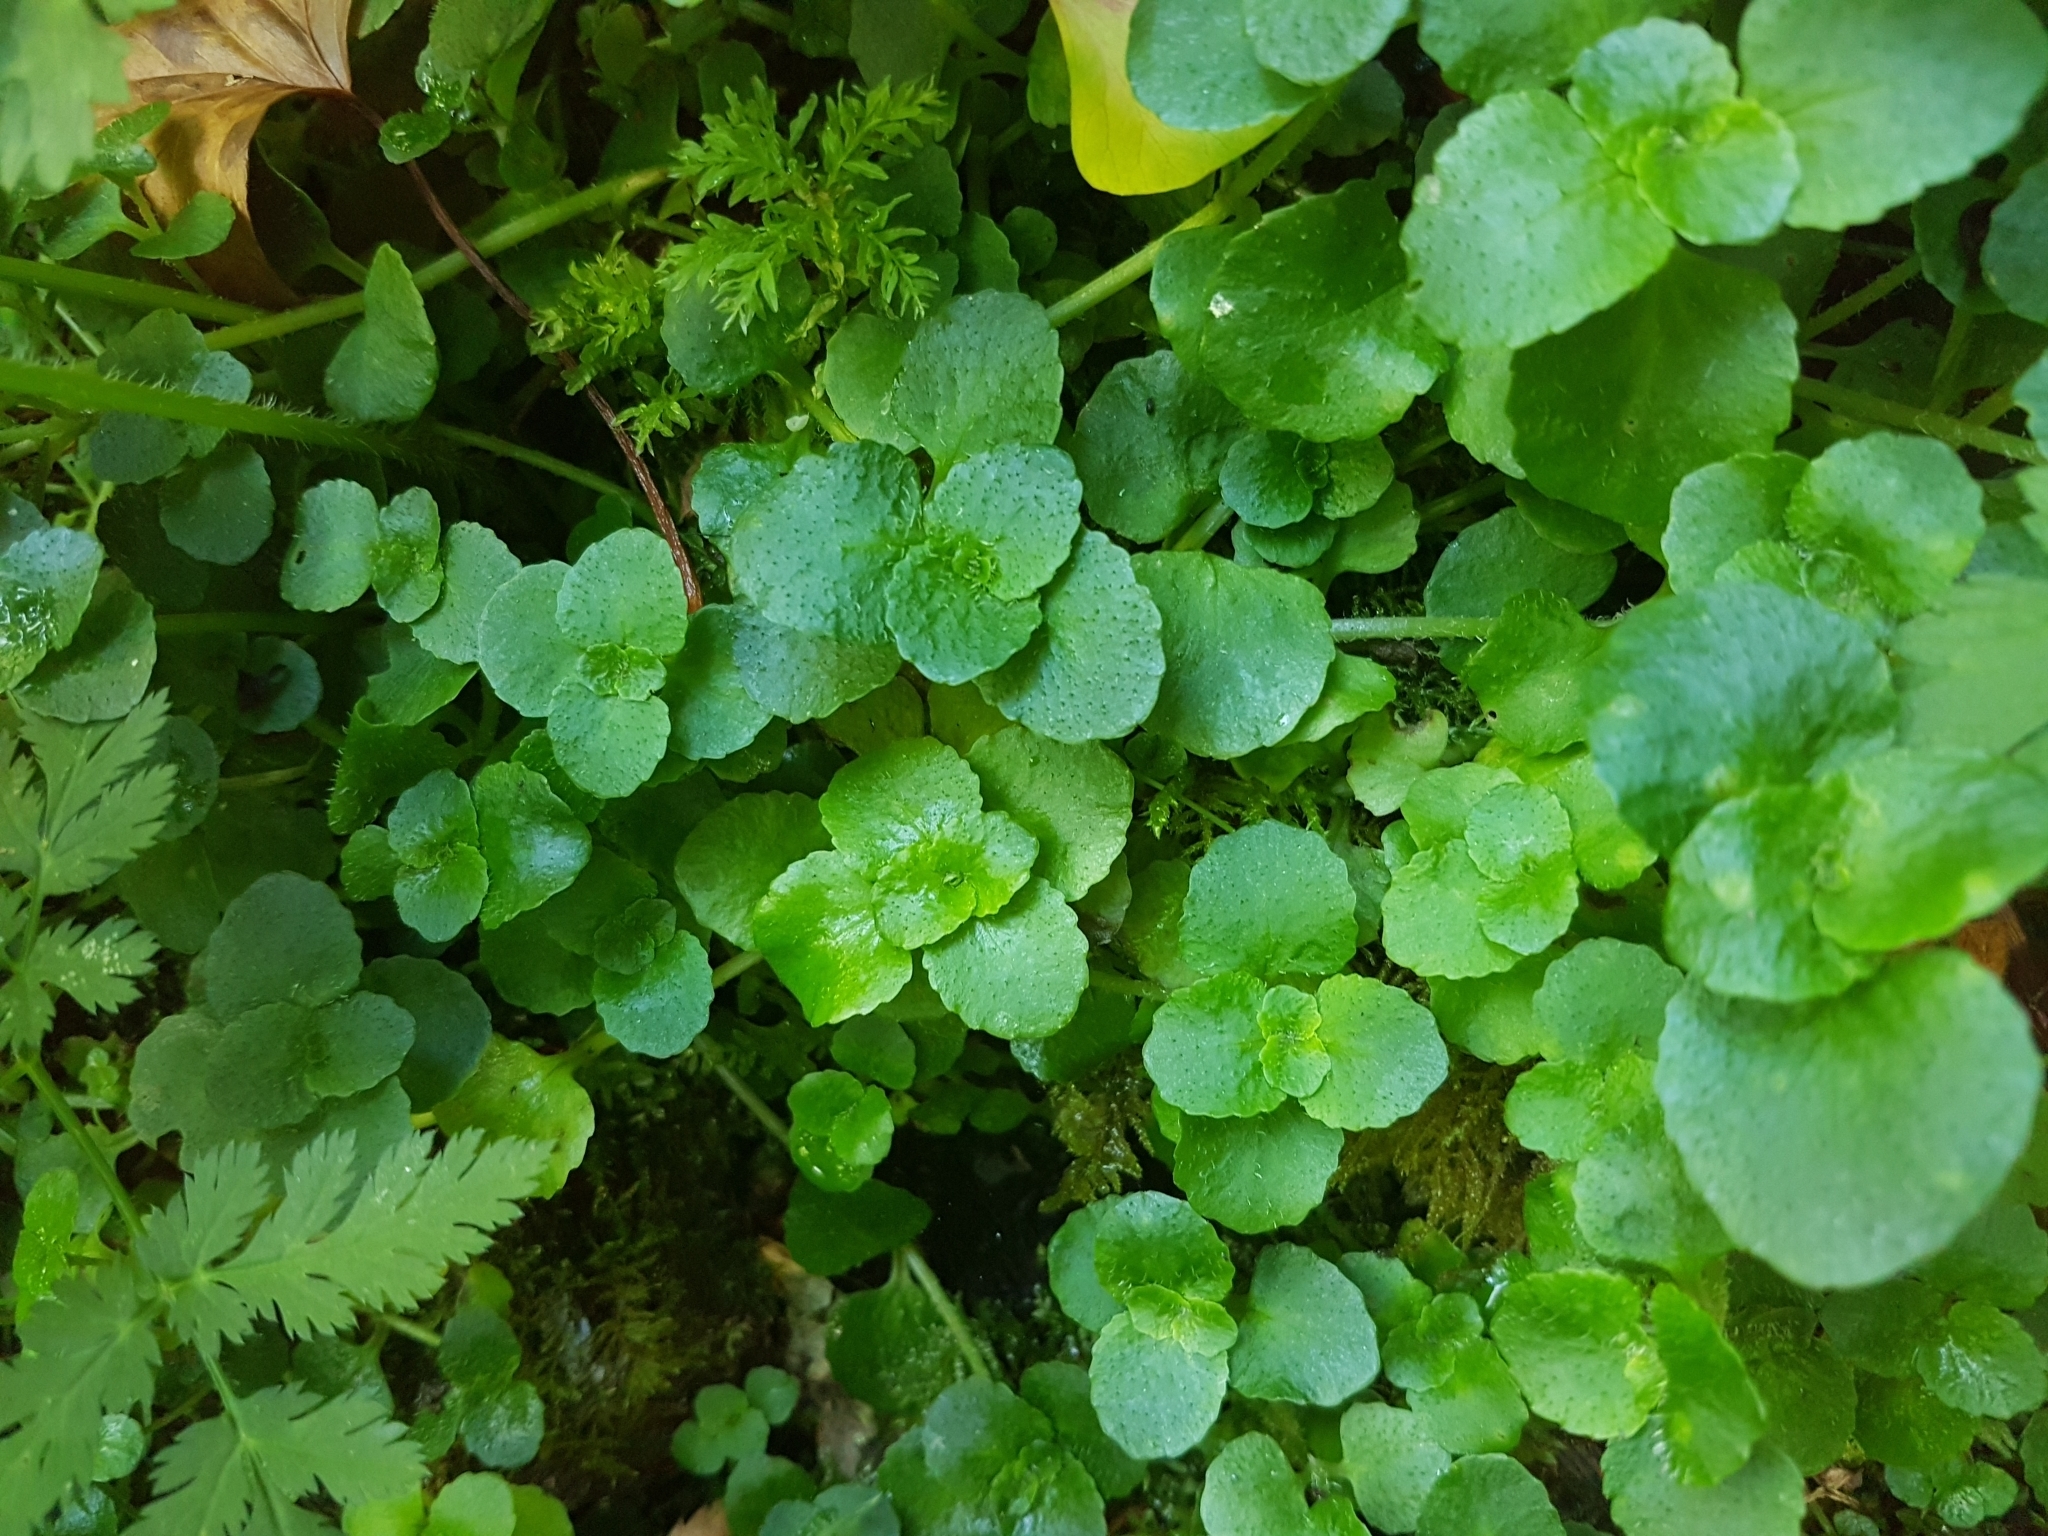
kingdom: Plantae
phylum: Tracheophyta
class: Magnoliopsida
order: Saxifragales
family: Saxifragaceae
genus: Chrysosplenium
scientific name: Chrysosplenium oppositifolium
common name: Opposite-leaved golden-saxifrage
